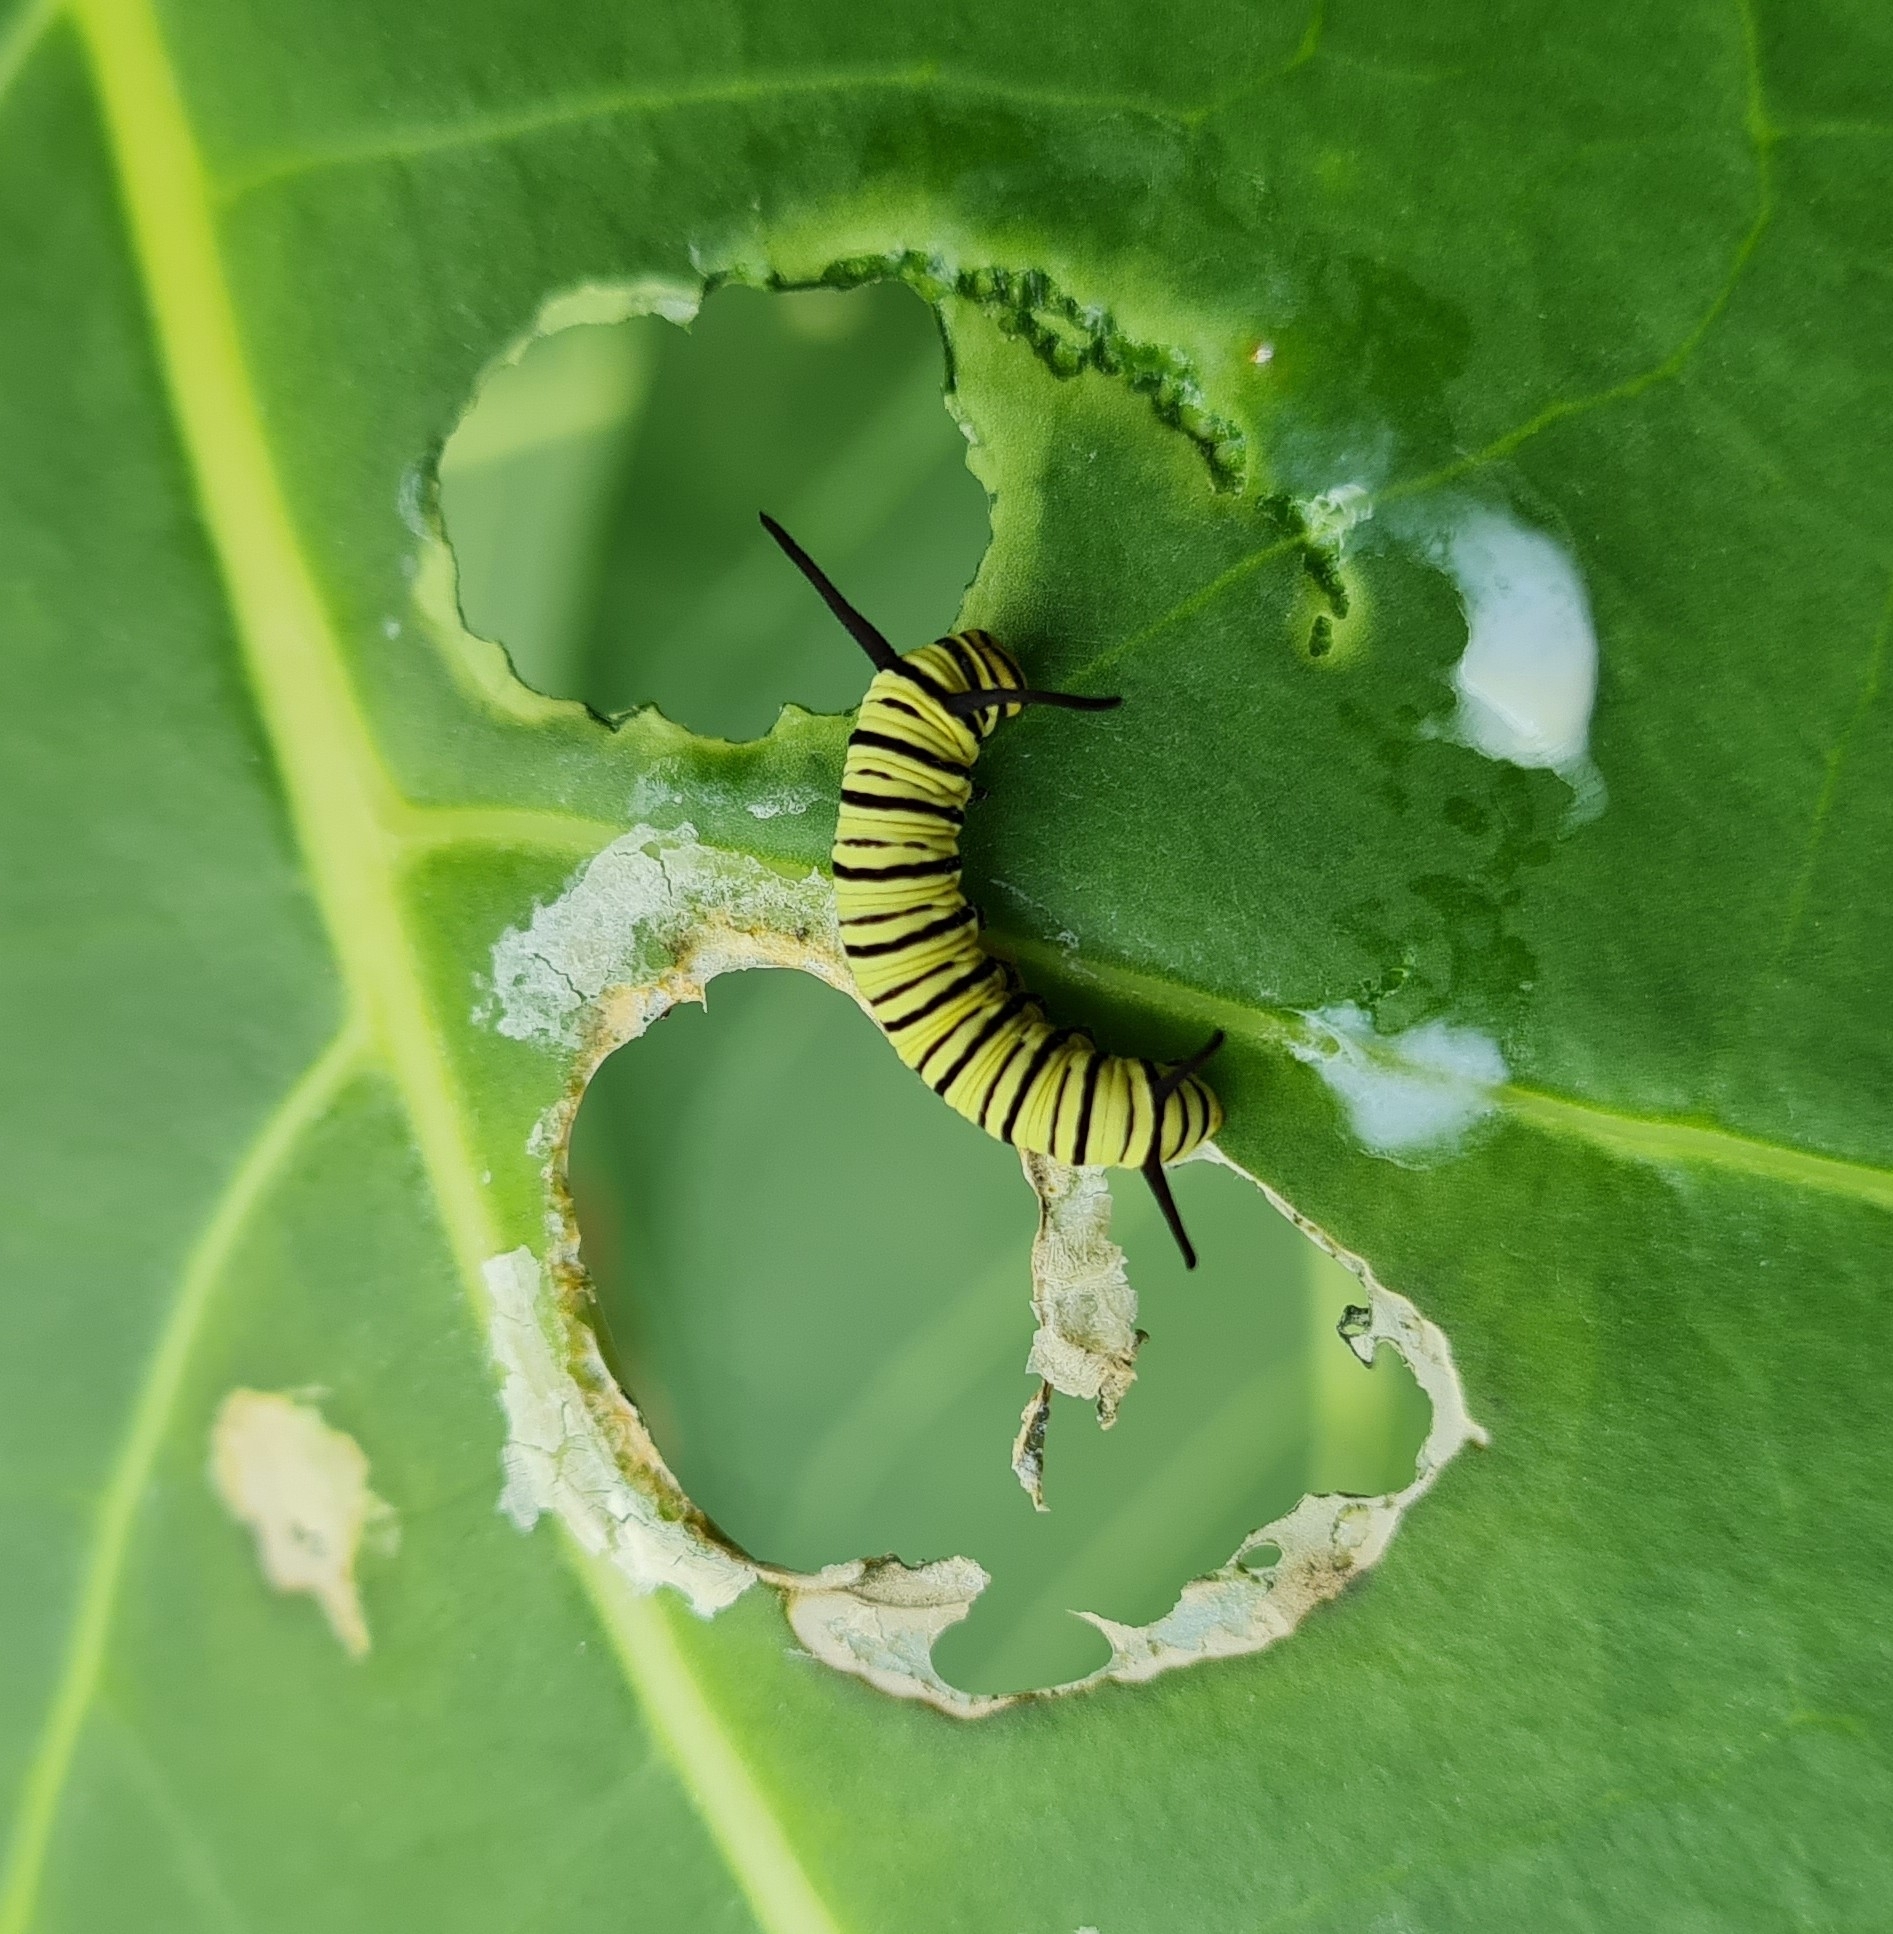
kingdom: Animalia
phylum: Arthropoda
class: Insecta
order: Lepidoptera
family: Nymphalidae
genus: Danaus
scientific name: Danaus erippus
